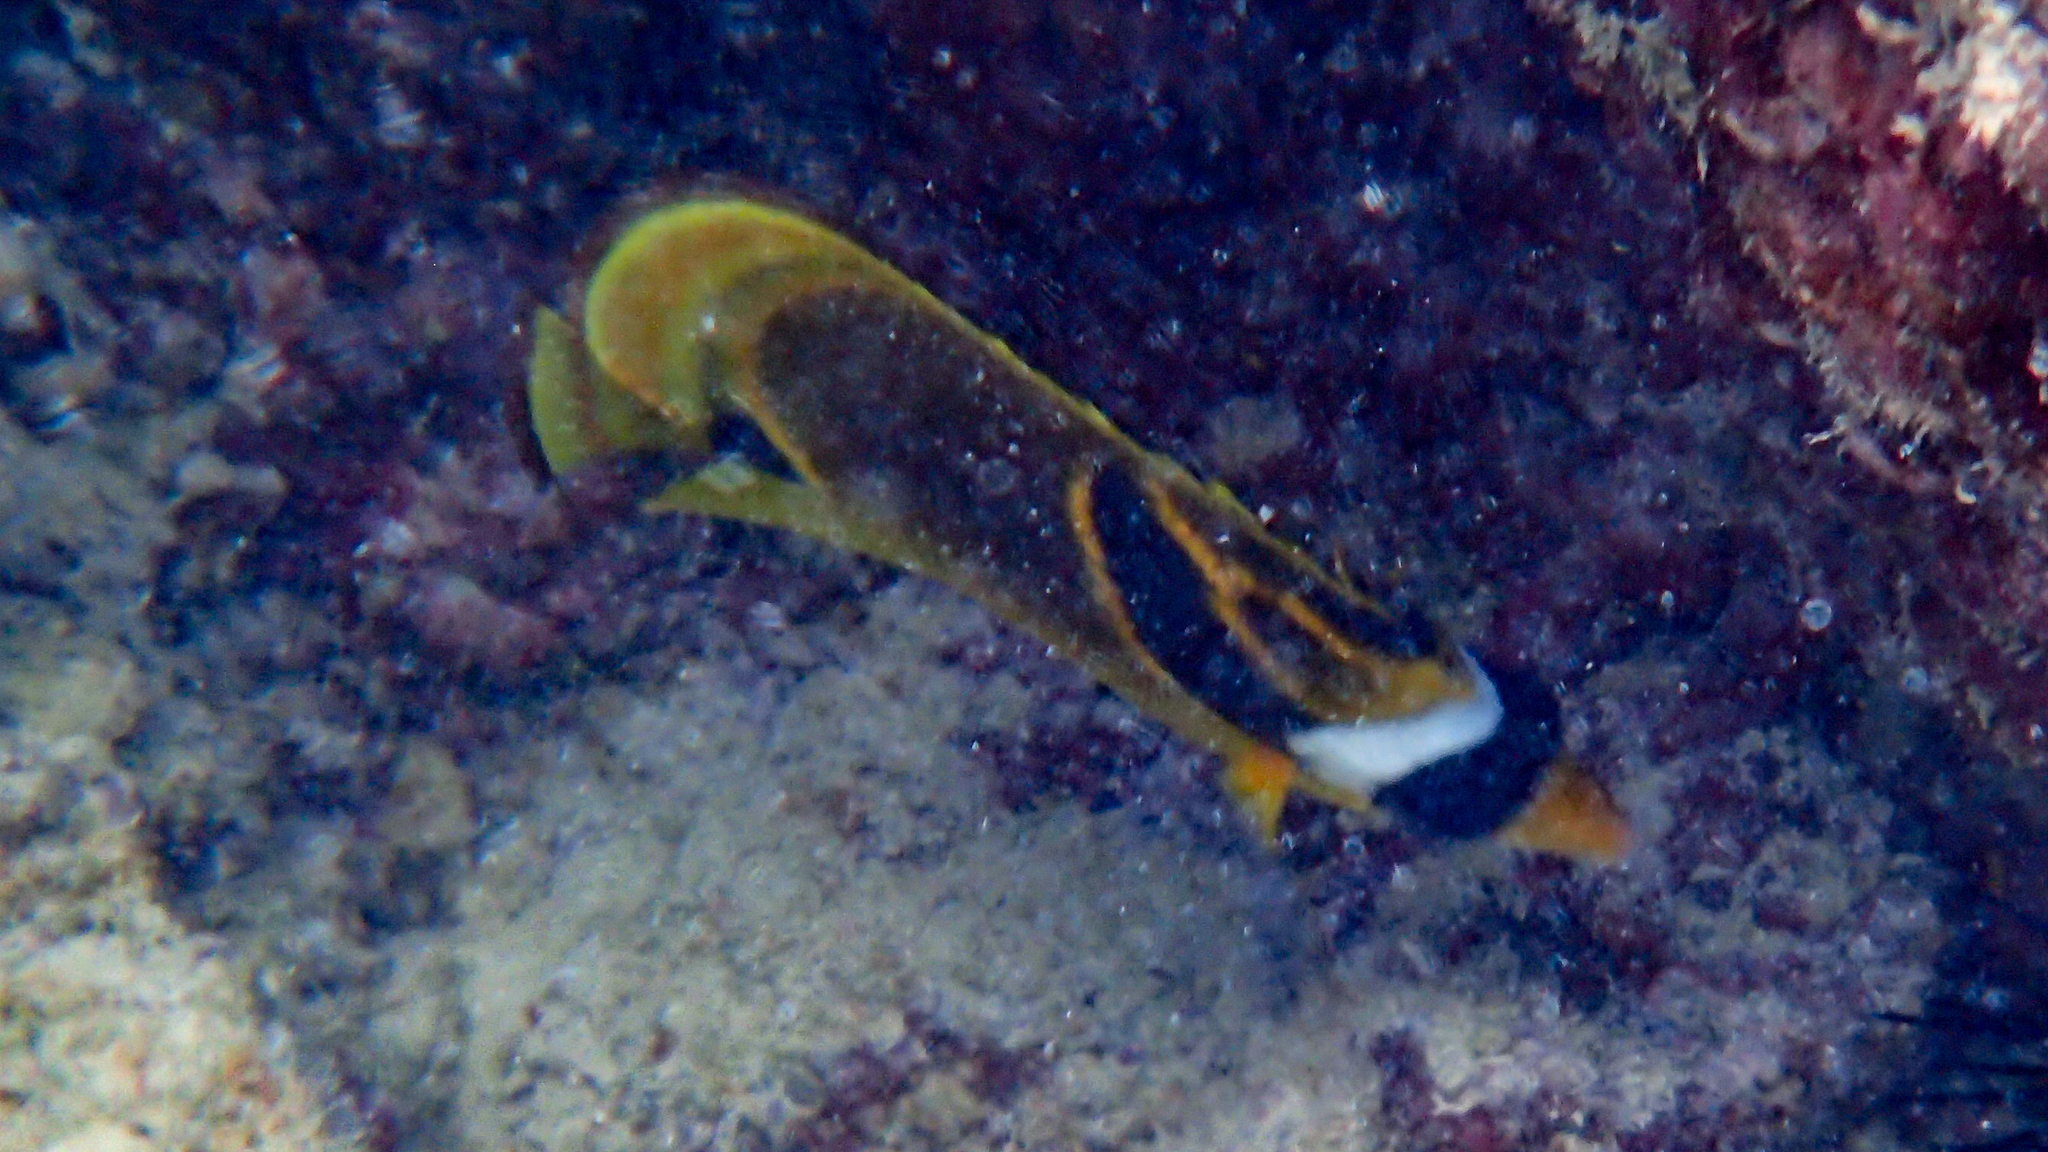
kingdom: Animalia
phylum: Chordata
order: Perciformes
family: Chaetodontidae
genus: Chaetodon
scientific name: Chaetodon lunula
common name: Raccoon butterflyfish
